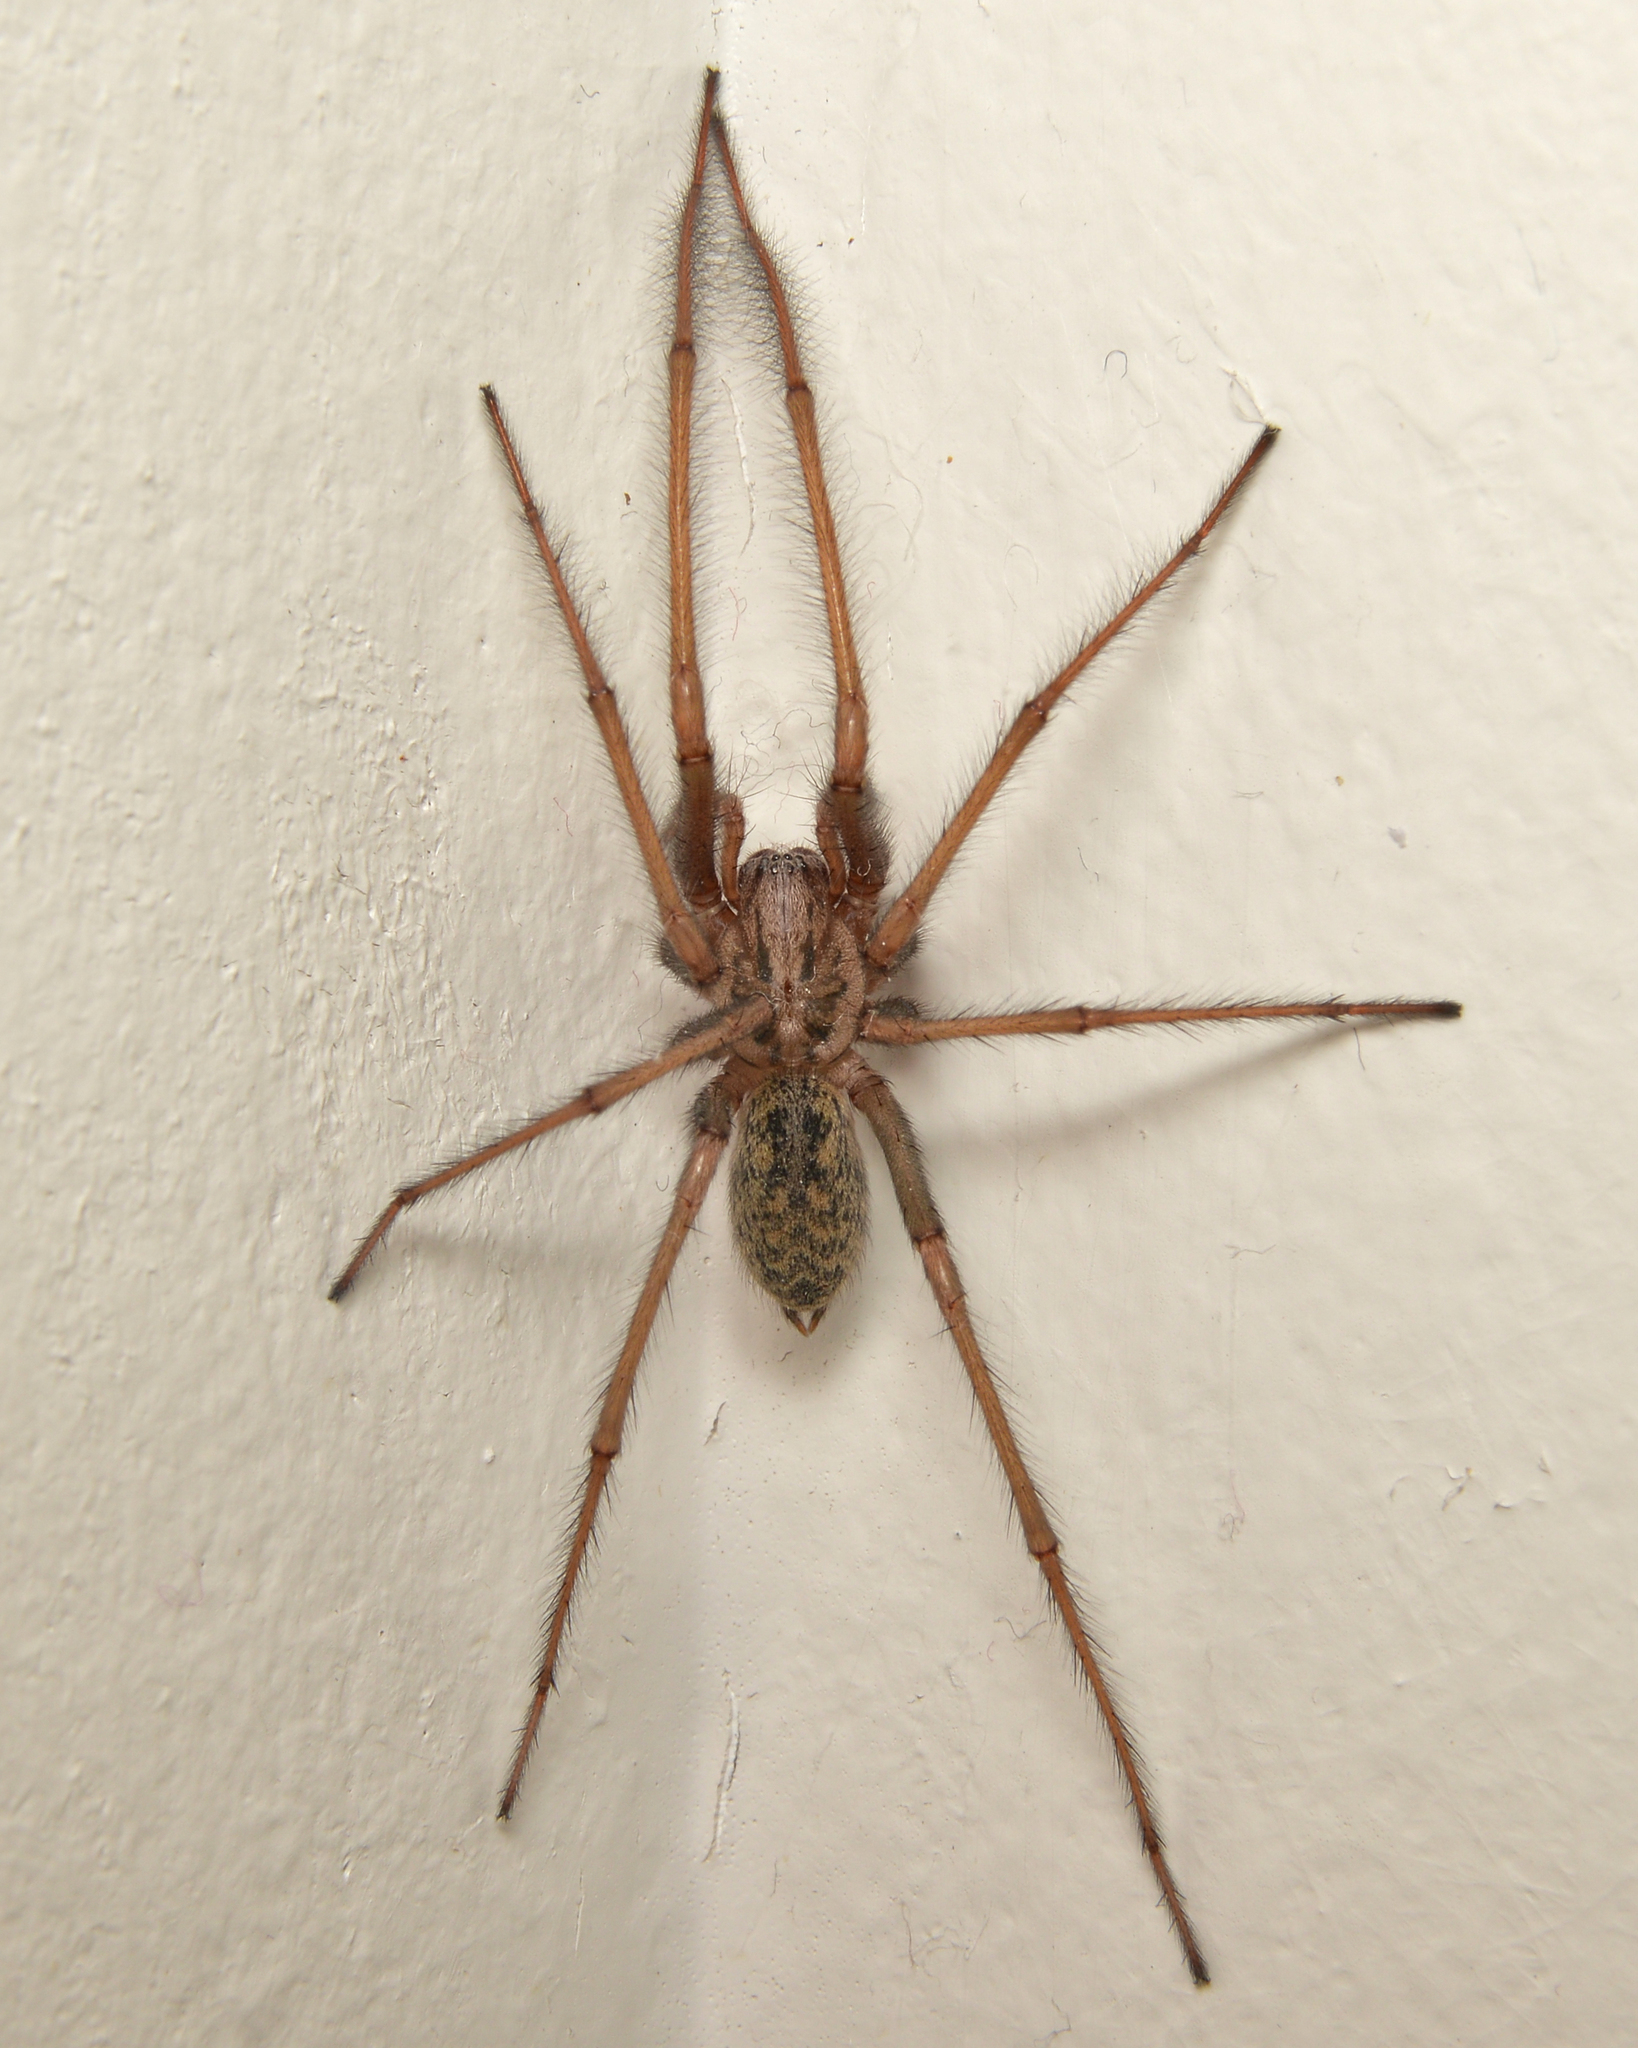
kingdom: Animalia
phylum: Arthropoda
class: Arachnida
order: Araneae
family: Agelenidae
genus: Eratigena
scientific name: Eratigena atrica
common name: Giant house spider
